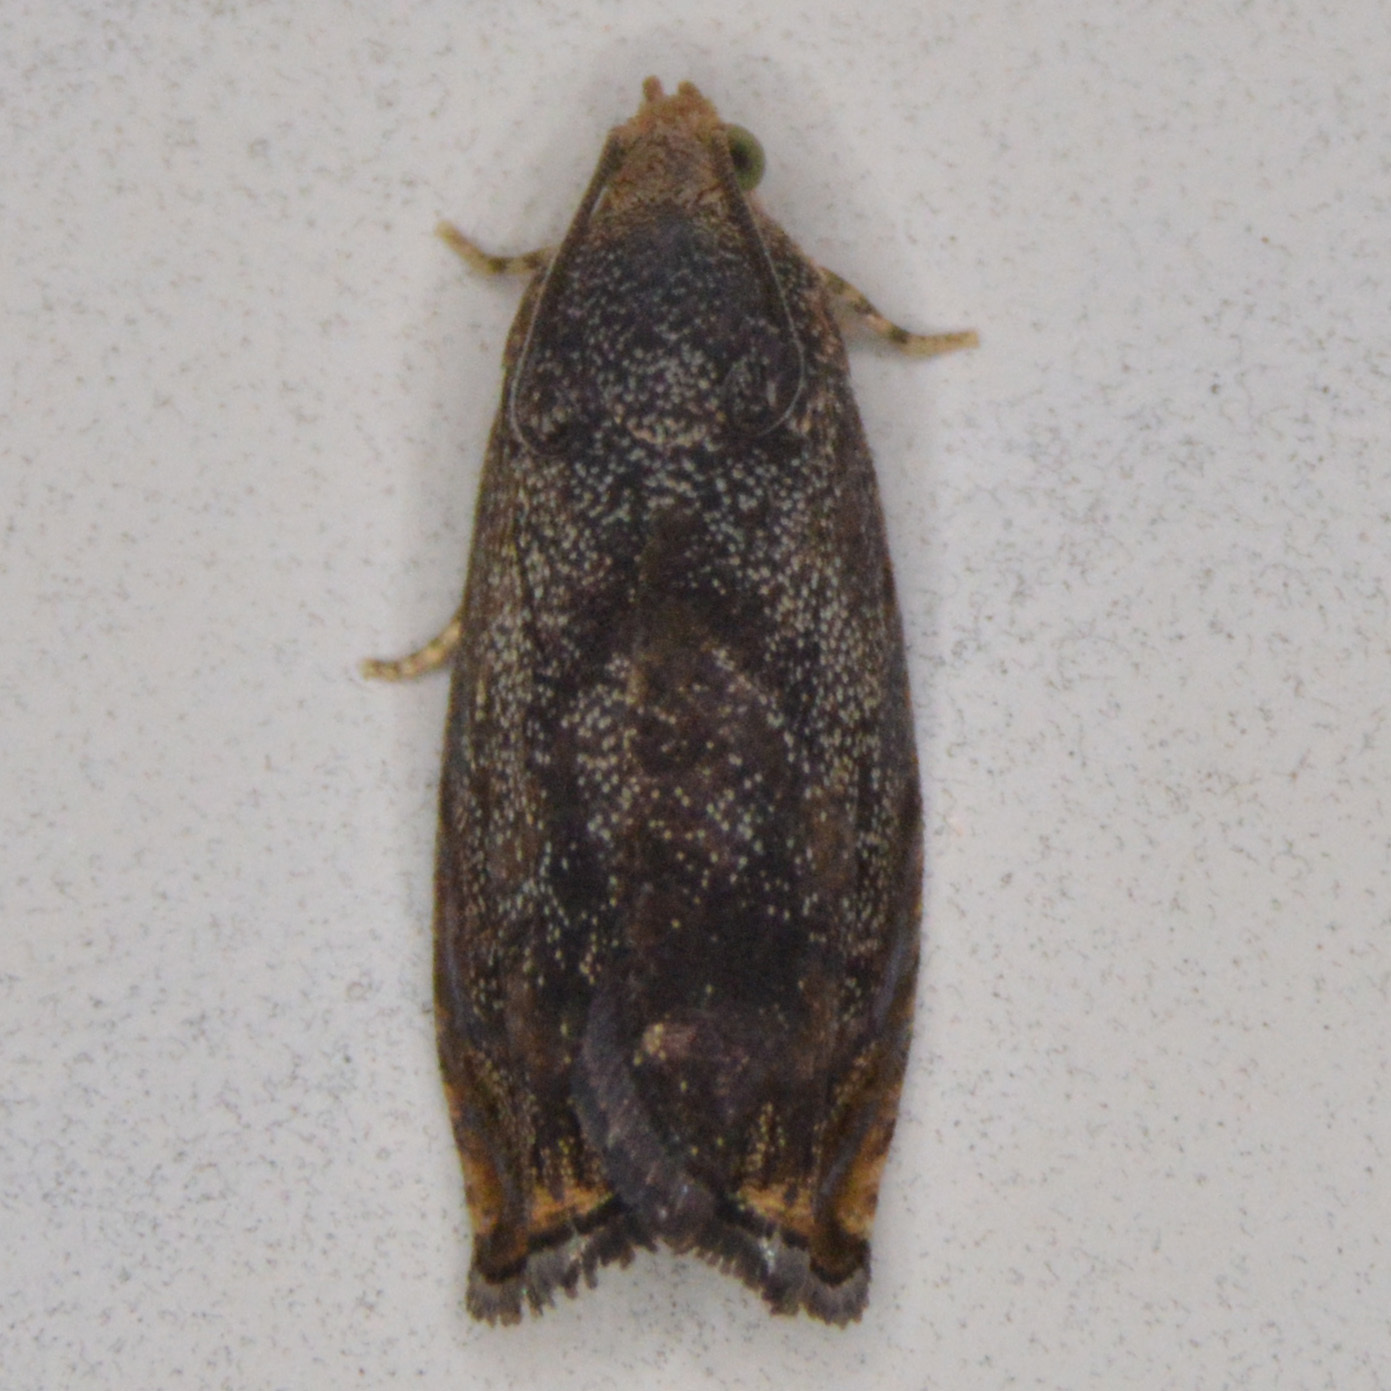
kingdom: Animalia
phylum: Arthropoda
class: Insecta
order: Lepidoptera
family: Tortricidae
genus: Cydia
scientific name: Cydia caryana
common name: Hickory shuckworm moth
